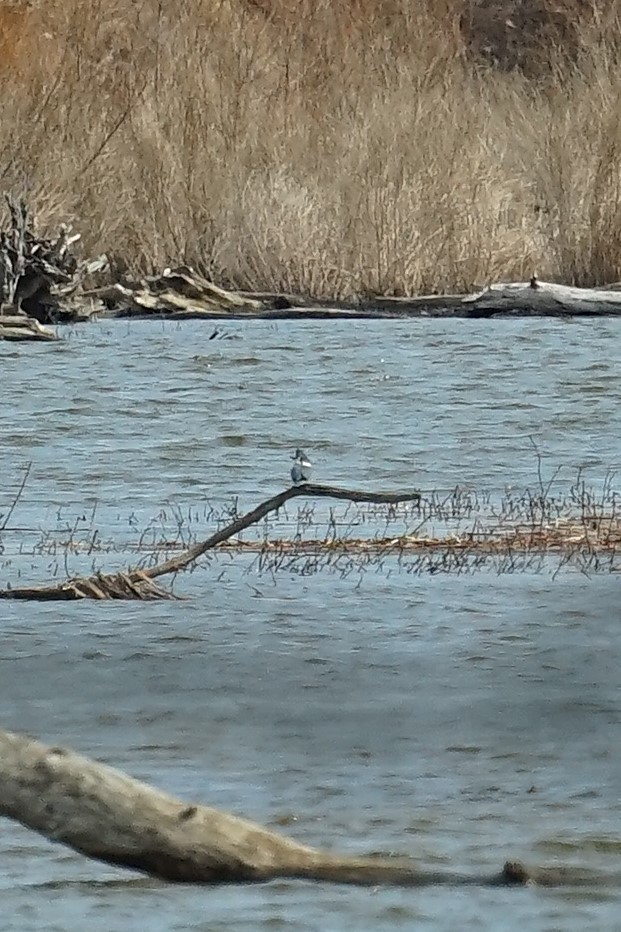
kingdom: Animalia
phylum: Chordata
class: Aves
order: Coraciiformes
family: Alcedinidae
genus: Megaceryle
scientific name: Megaceryle alcyon
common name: Belted kingfisher
